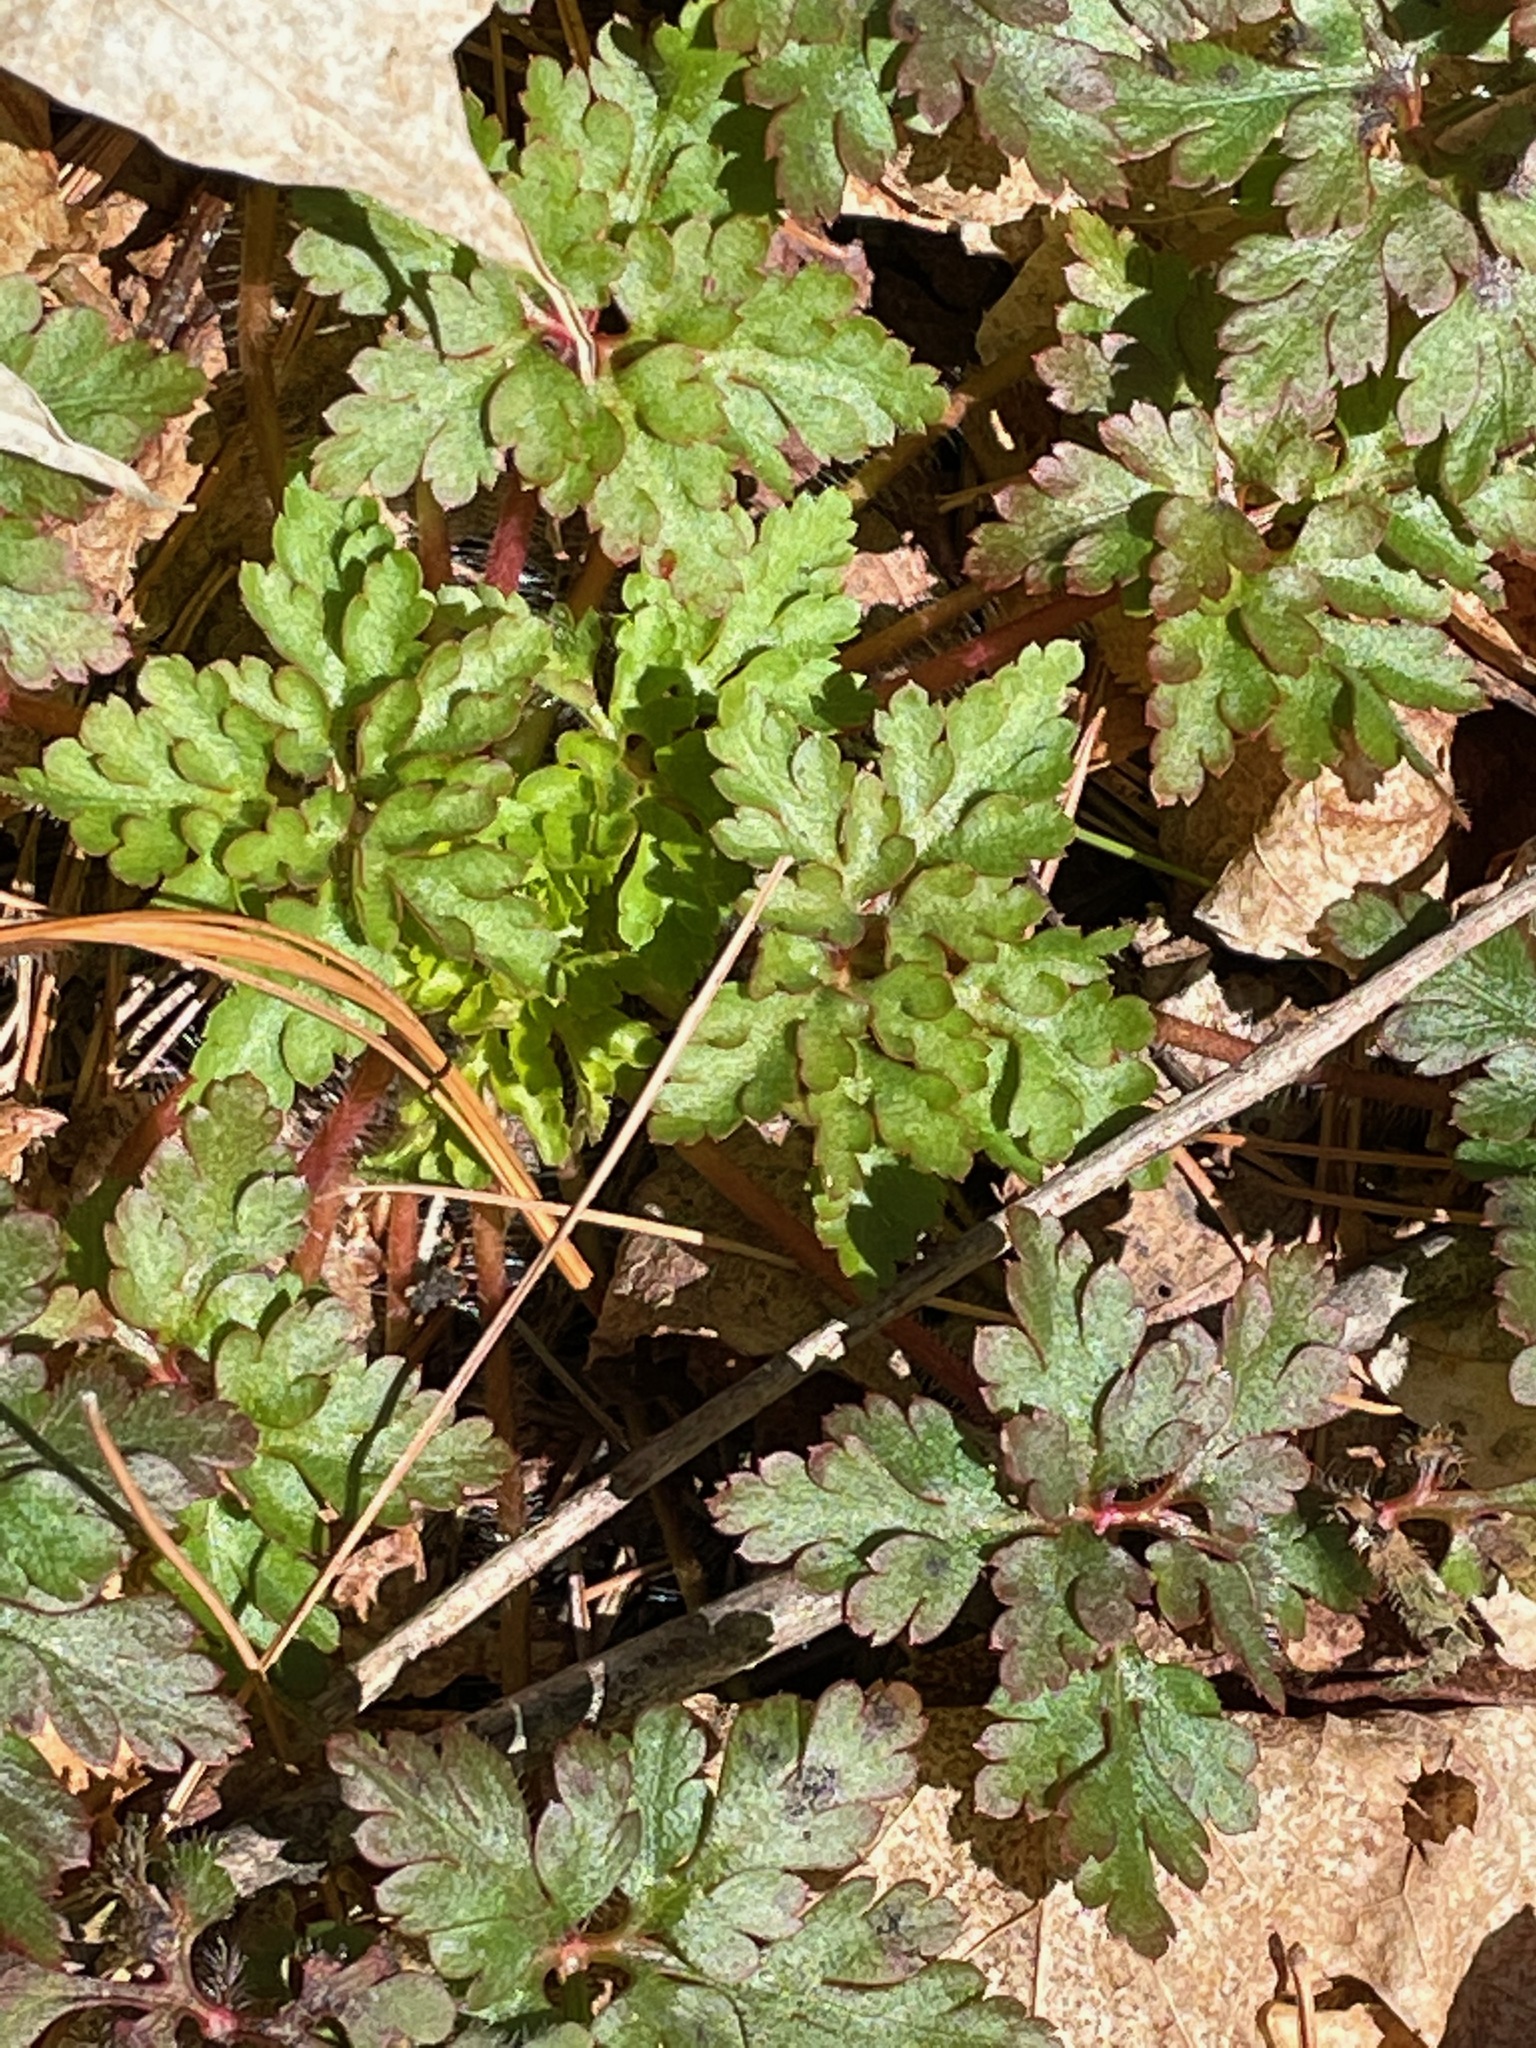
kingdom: Plantae
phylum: Tracheophyta
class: Magnoliopsida
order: Geraniales
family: Geraniaceae
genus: Geranium
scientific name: Geranium robertianum
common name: Herb-robert
